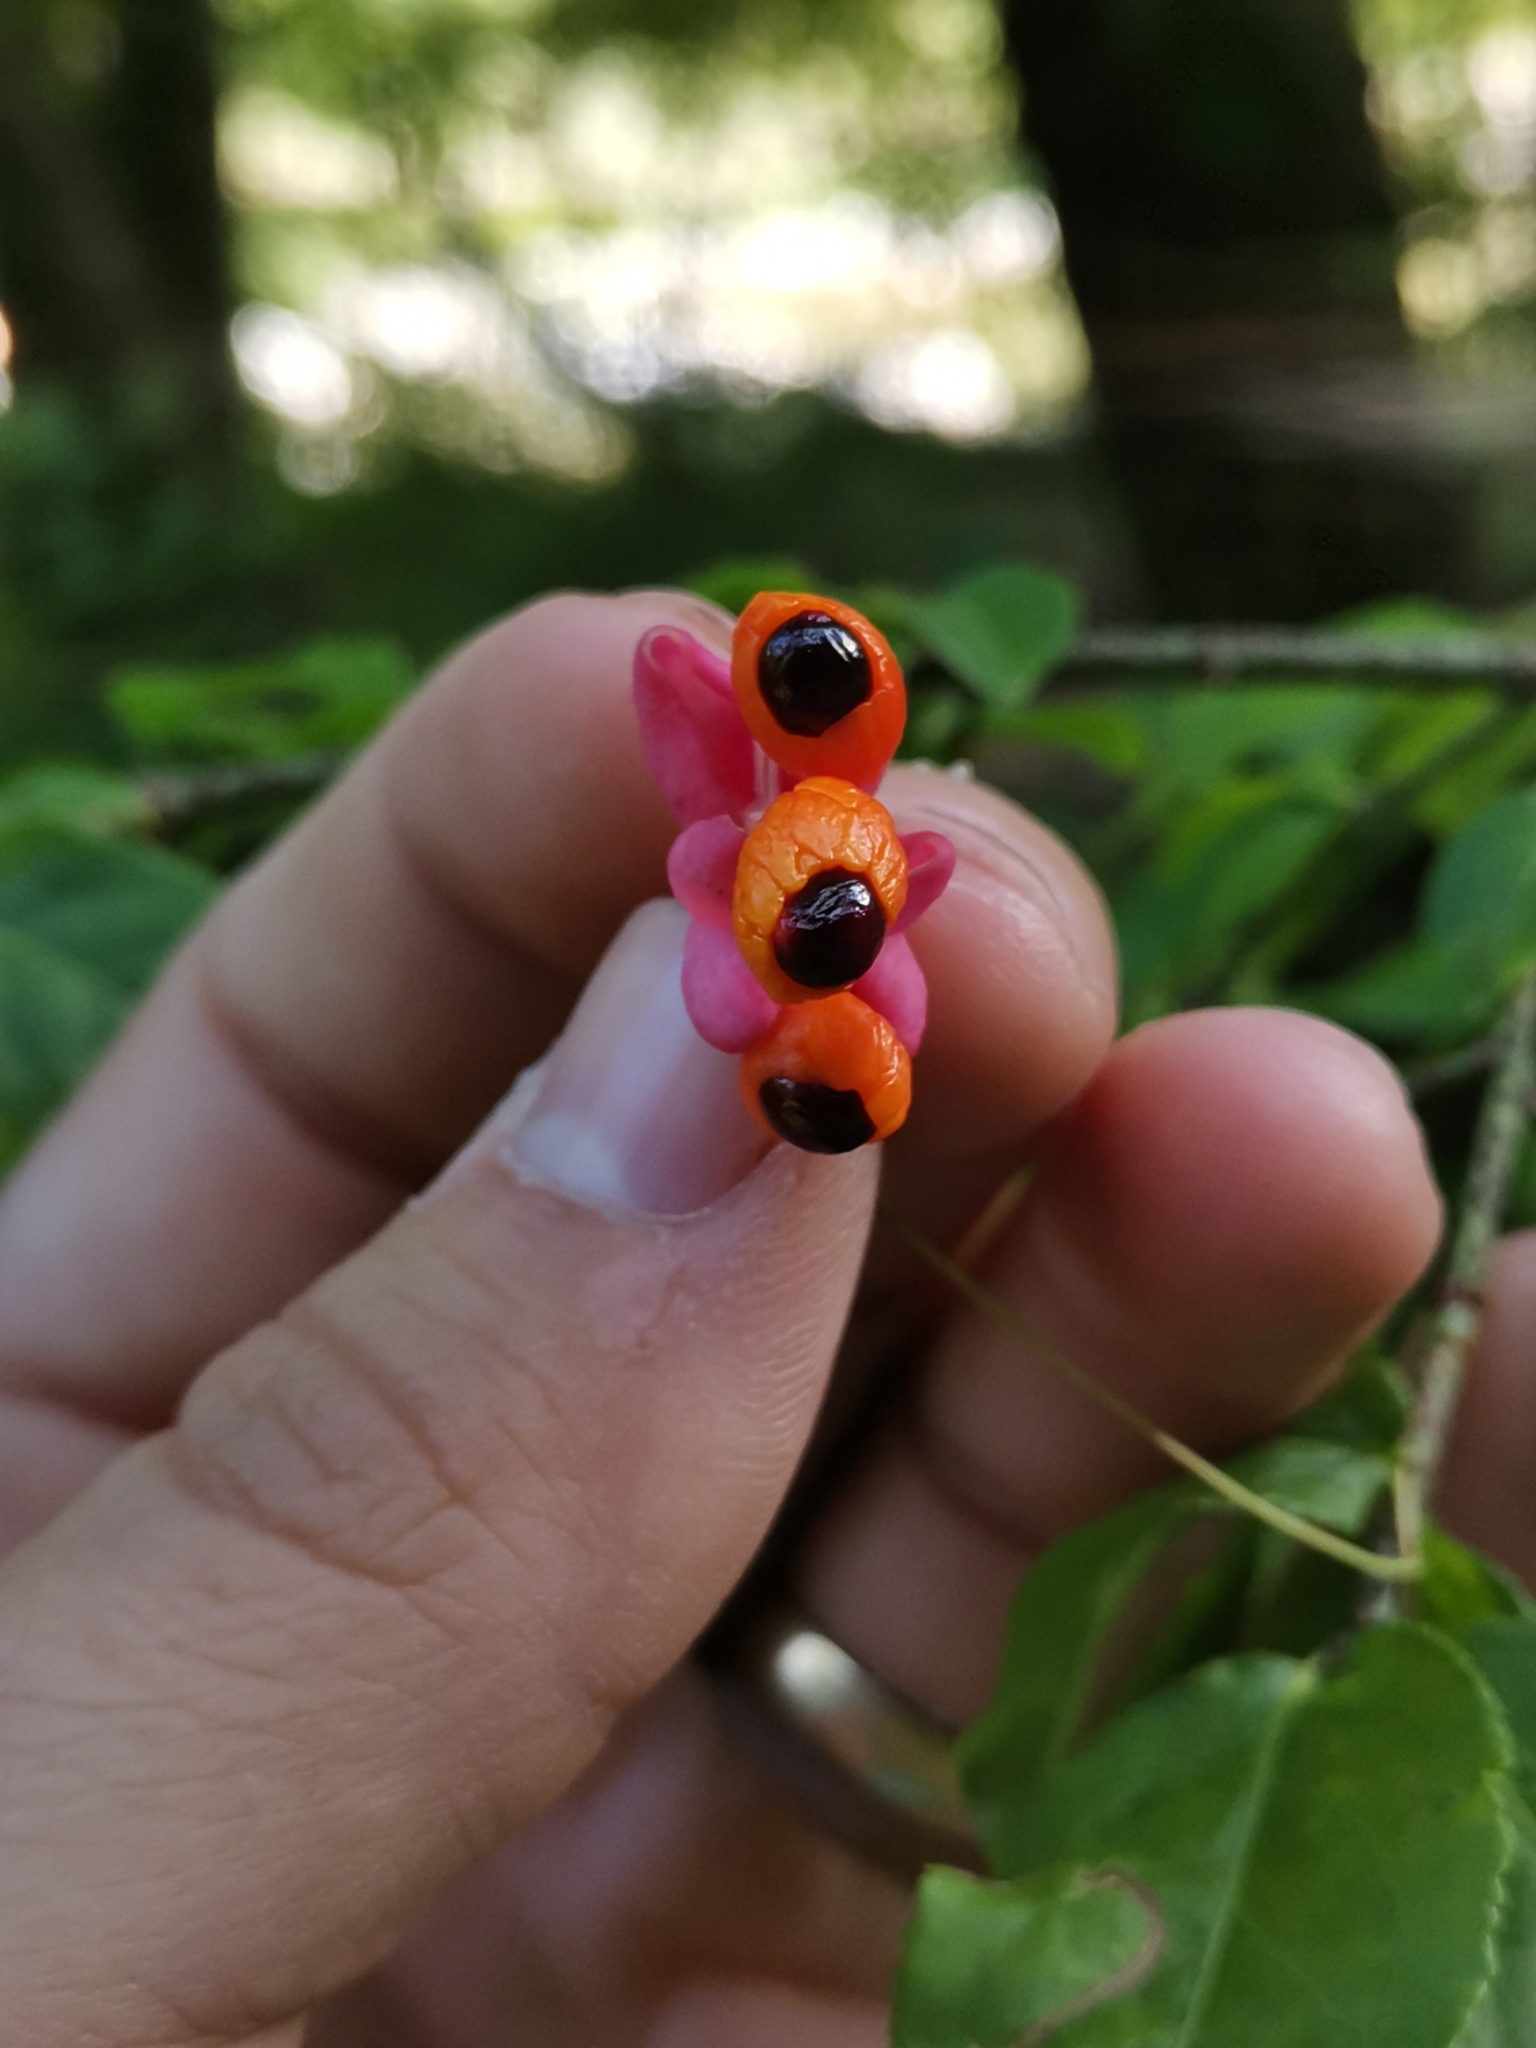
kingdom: Plantae
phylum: Tracheophyta
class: Magnoliopsida
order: Celastrales
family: Celastraceae
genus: Euonymus
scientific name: Euonymus verrucosus
